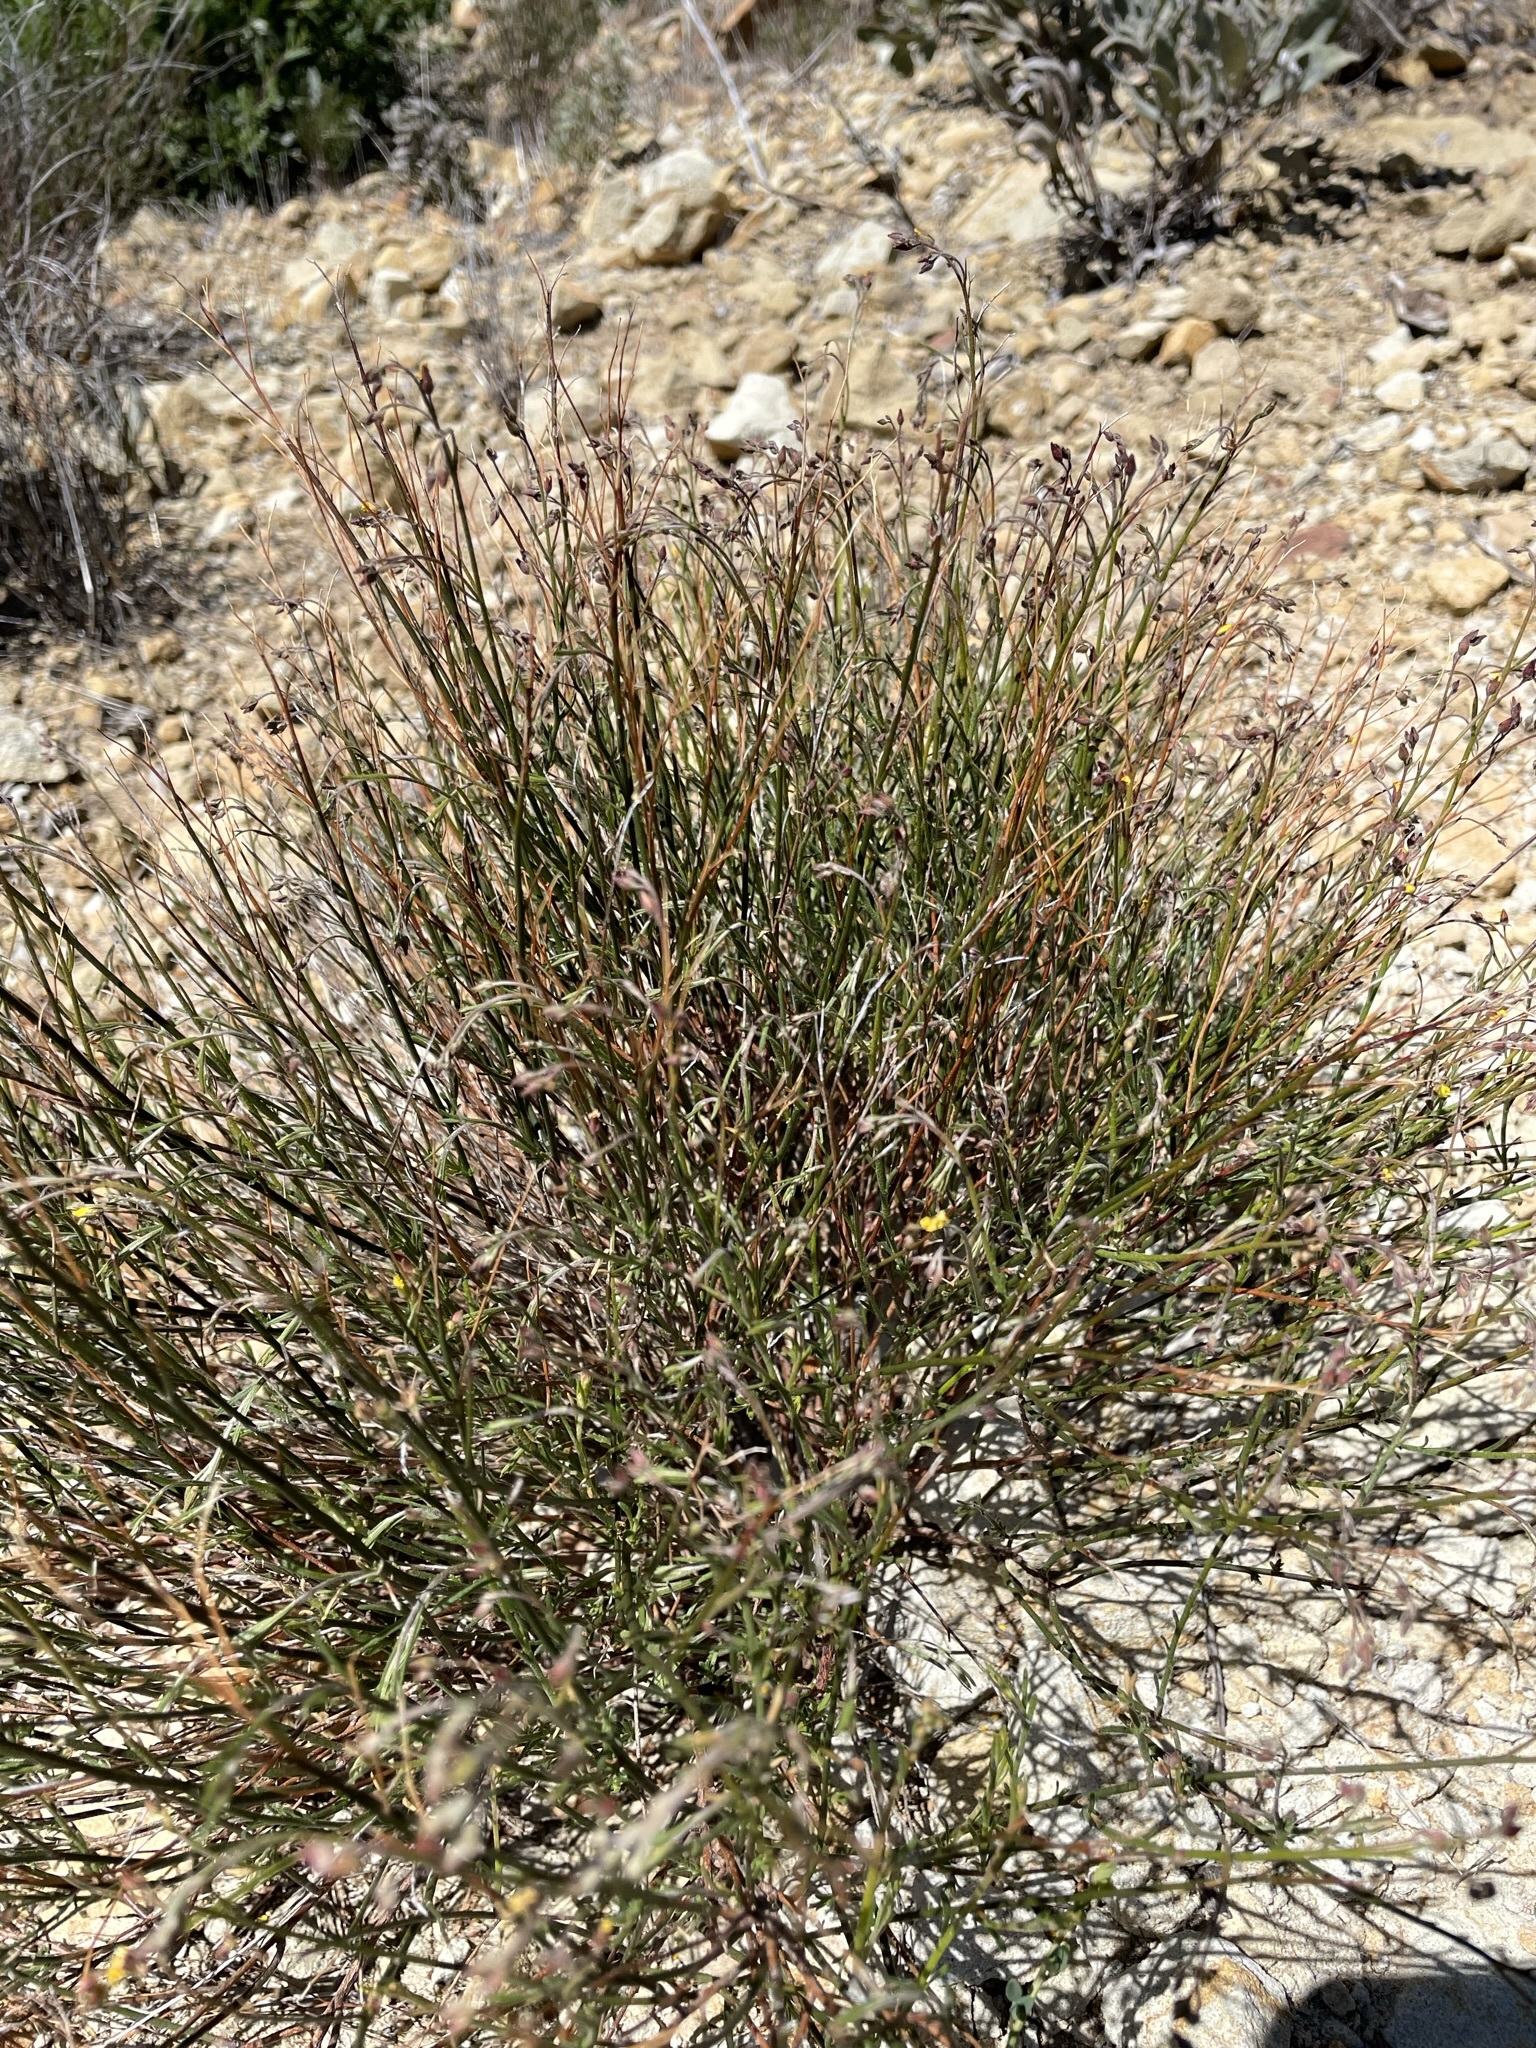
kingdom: Plantae
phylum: Tracheophyta
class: Magnoliopsida
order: Malvales
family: Cistaceae
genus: Crocanthemum
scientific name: Crocanthemum scoparium
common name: Broom-rose
